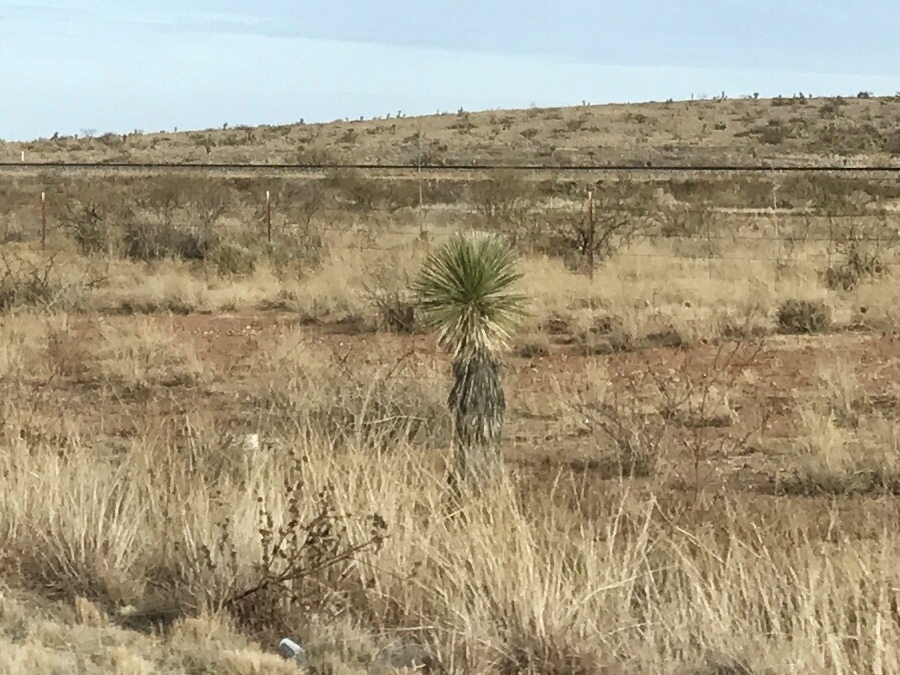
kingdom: Plantae
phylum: Tracheophyta
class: Liliopsida
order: Asparagales
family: Asparagaceae
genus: Yucca
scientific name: Yucca elata
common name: Palmella
